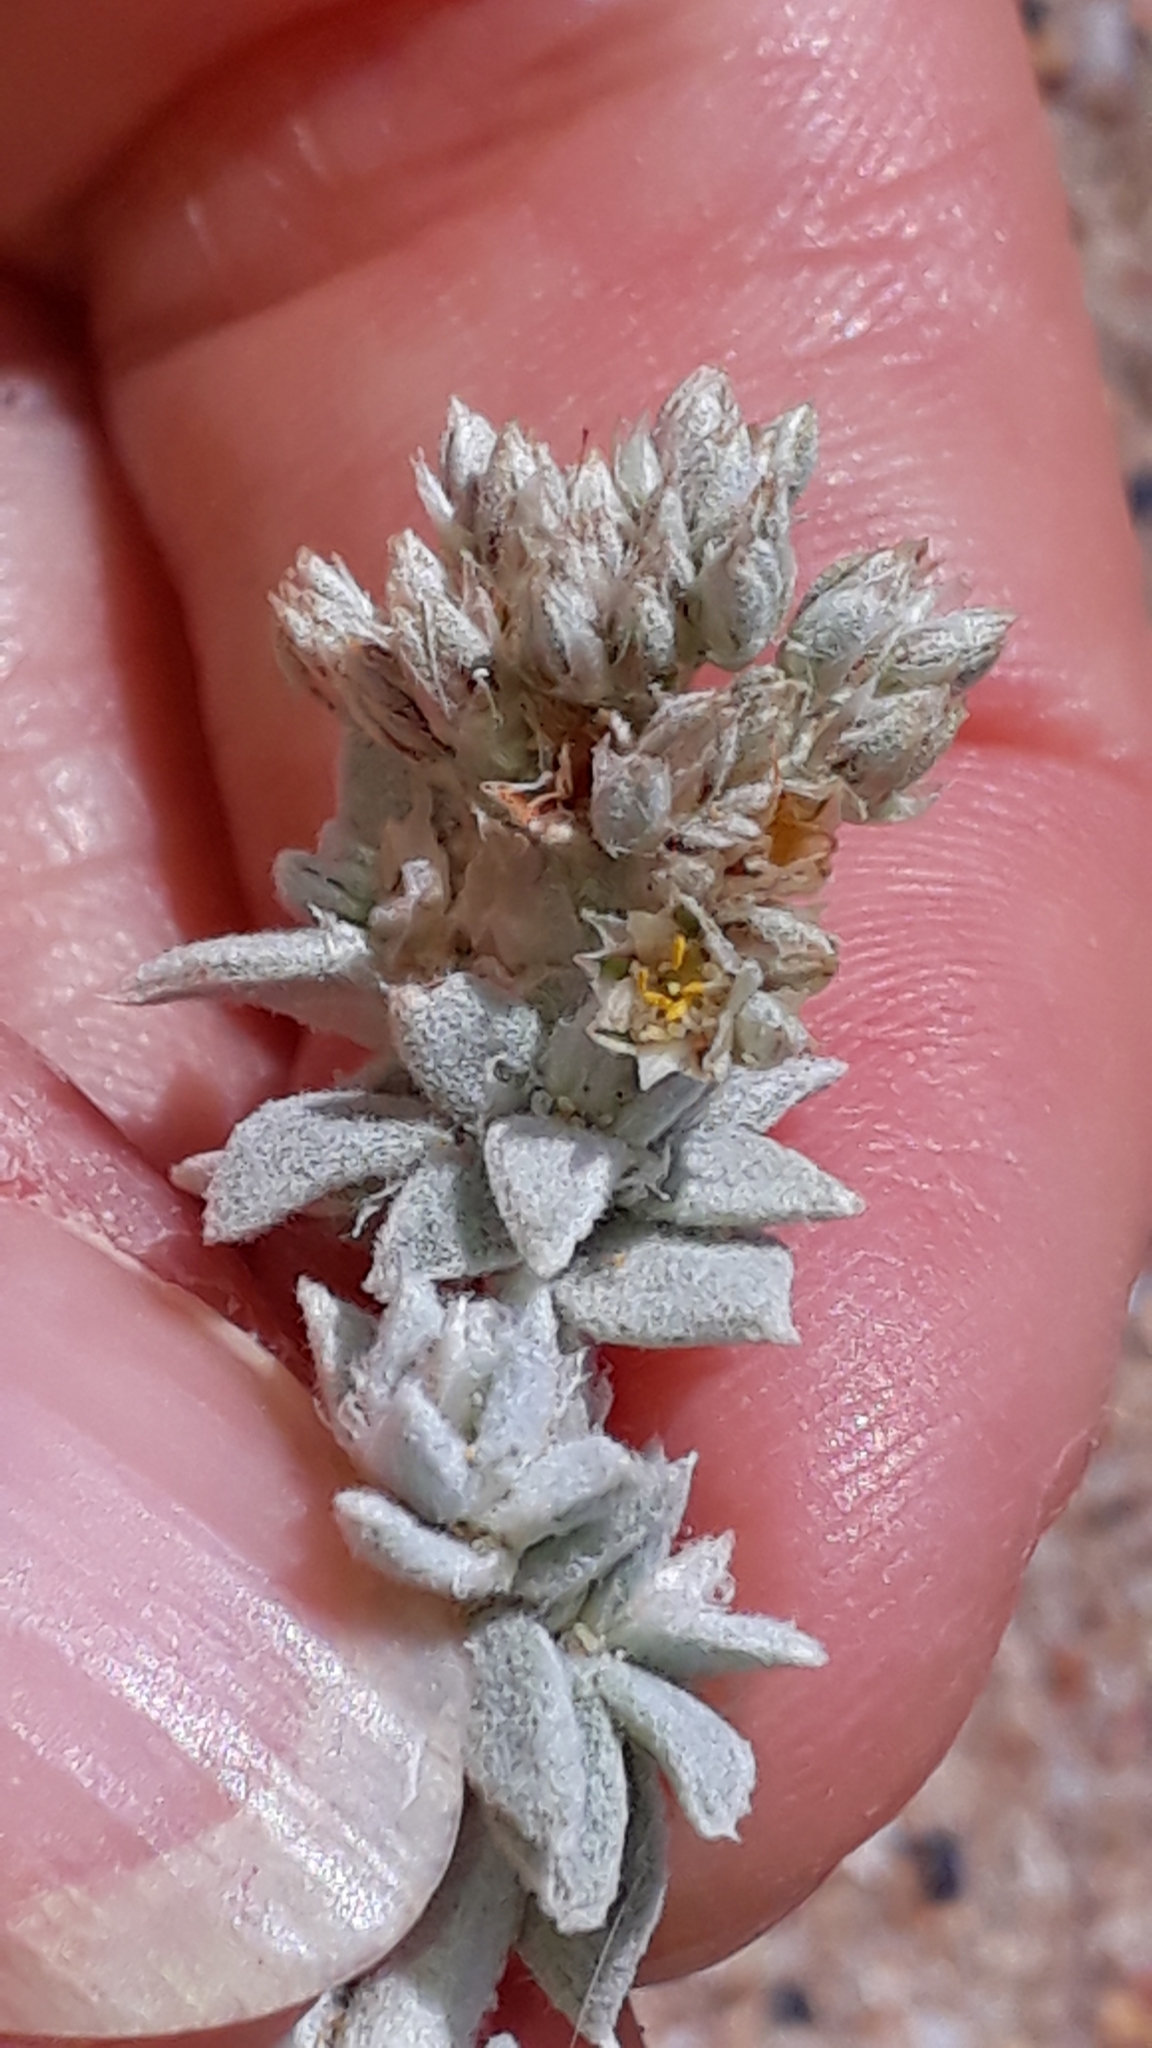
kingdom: Plantae
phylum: Tracheophyta
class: Magnoliopsida
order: Caryophyllales
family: Caryophyllaceae
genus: Polycarpaea
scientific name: Polycarpaea nivea
